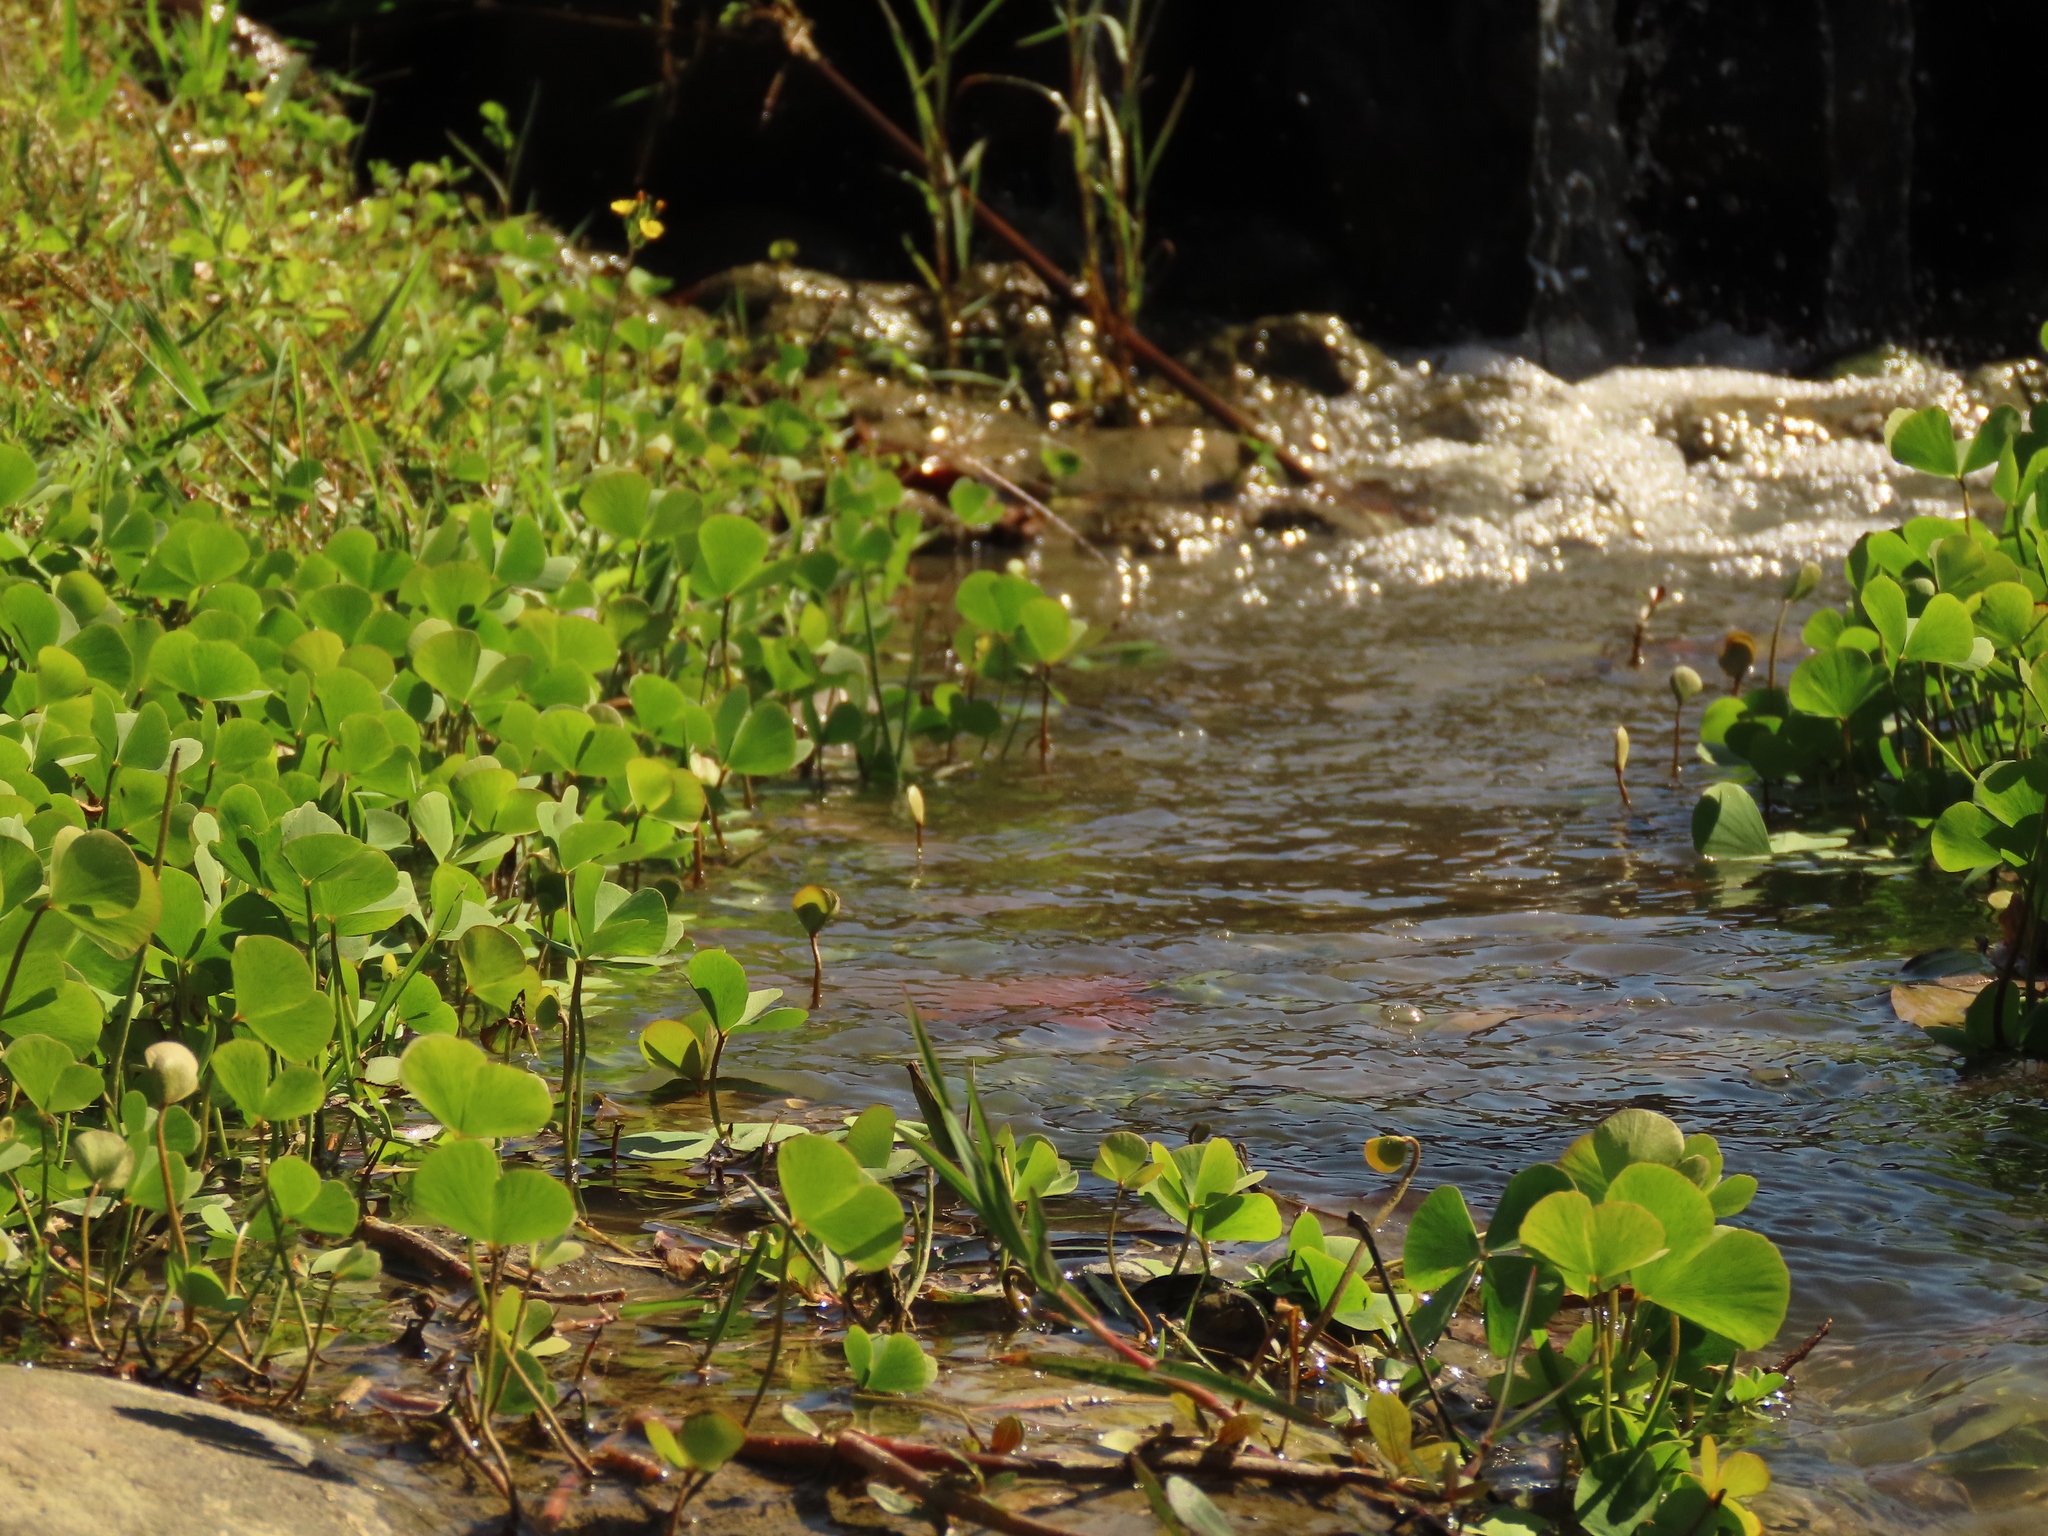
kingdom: Plantae
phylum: Tracheophyta
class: Polypodiopsida
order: Salviniales
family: Marsileaceae
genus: Marsilea
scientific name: Marsilea minuta
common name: Dwarf waterclover
